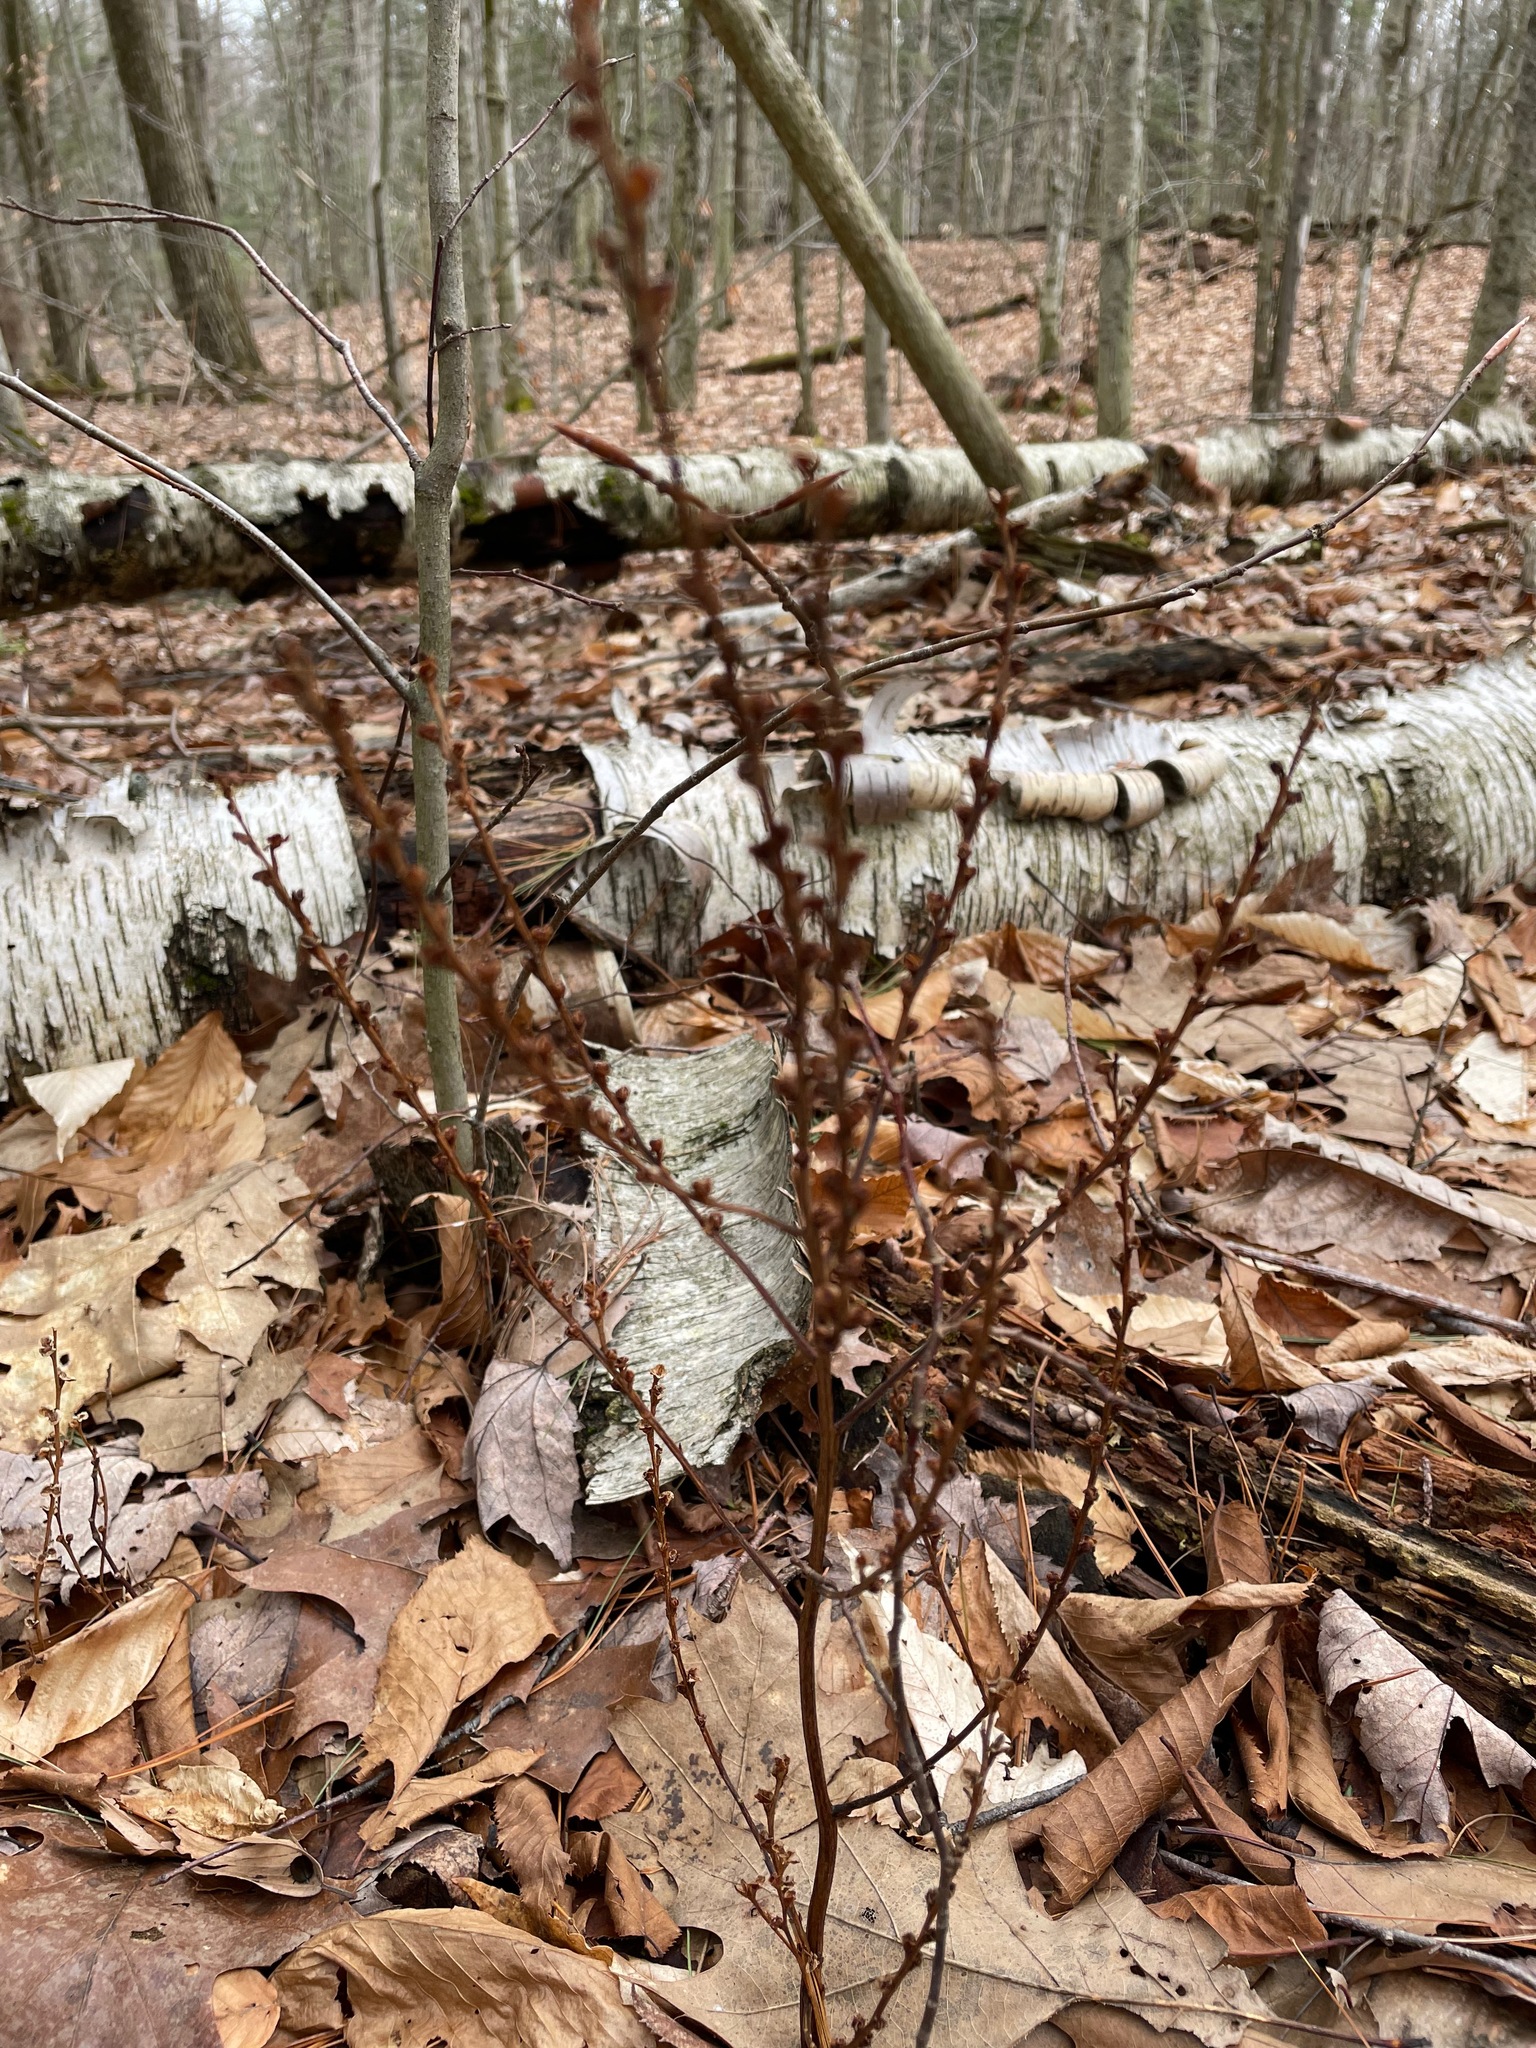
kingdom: Plantae
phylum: Tracheophyta
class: Magnoliopsida
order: Lamiales
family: Orobanchaceae
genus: Epifagus
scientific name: Epifagus virginiana
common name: Beechdrops
